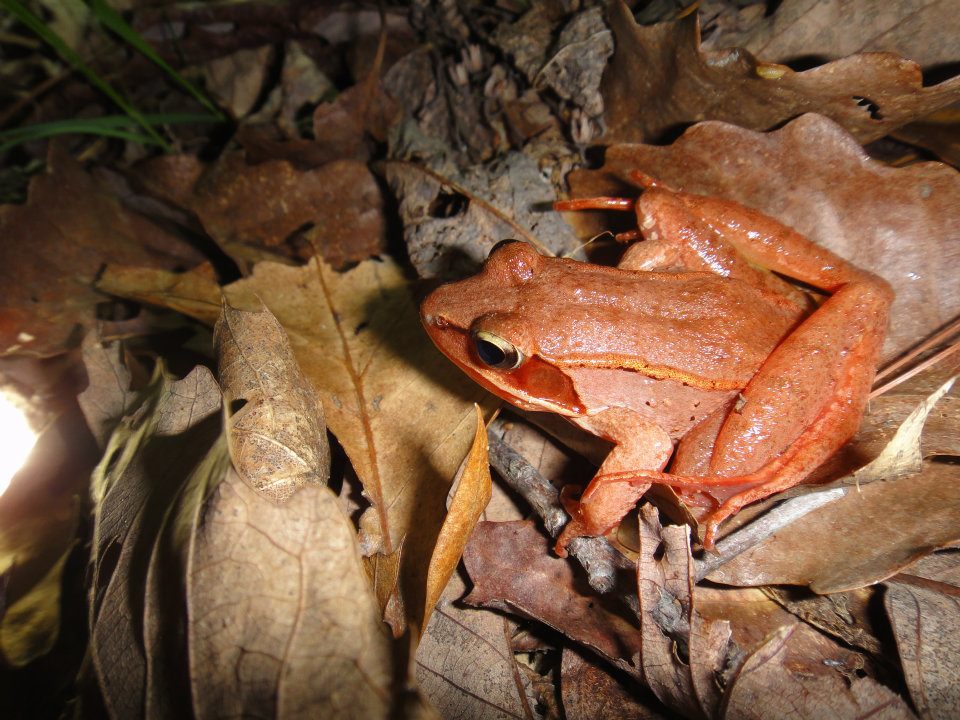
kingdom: Animalia
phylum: Chordata
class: Amphibia
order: Anura
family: Ranidae
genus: Lithobates
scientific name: Lithobates sylvaticus
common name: Wood frog
